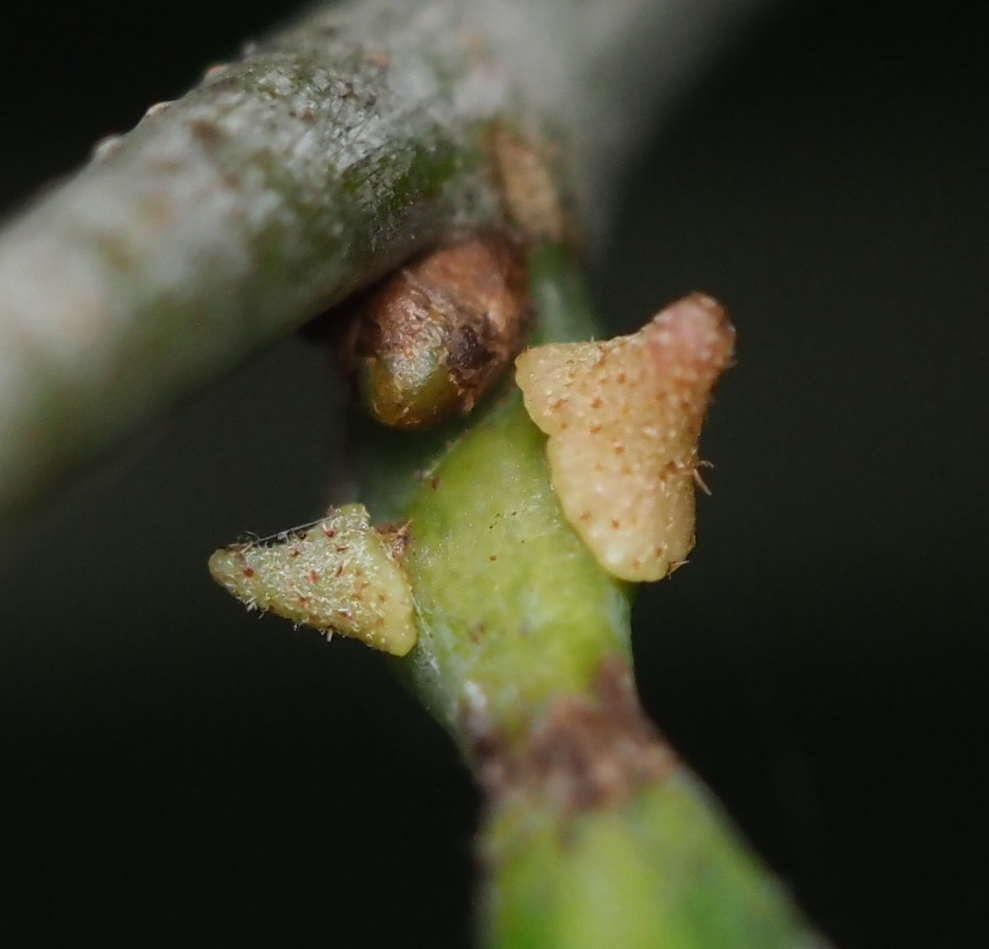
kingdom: Animalia
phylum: Arthropoda
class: Insecta
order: Hymenoptera
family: Cynipidae
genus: Zopheroteras
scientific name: Zopheroteras
